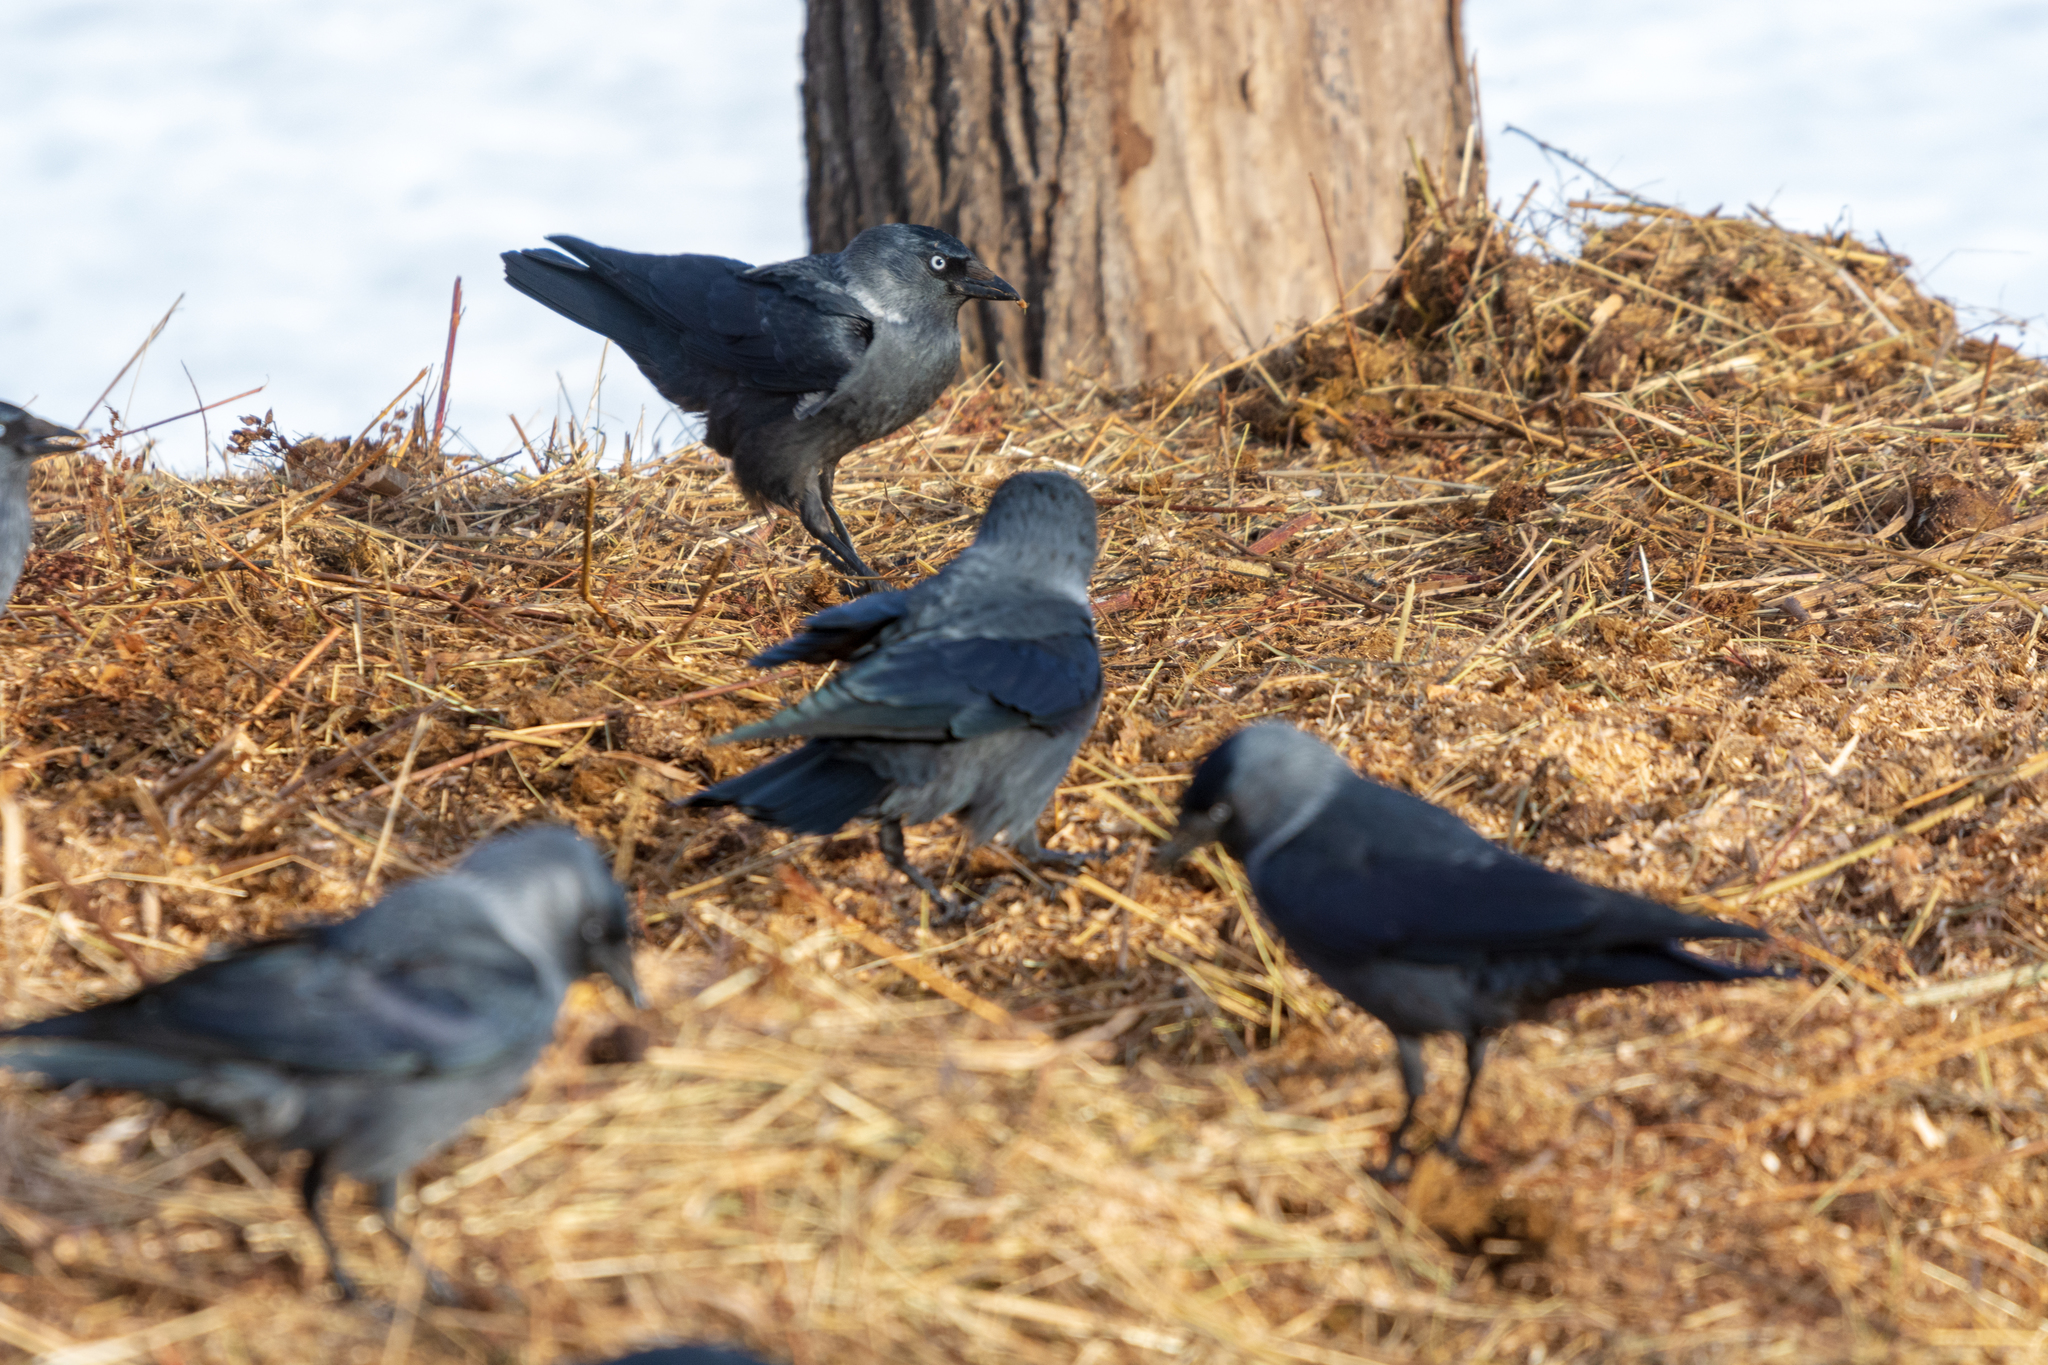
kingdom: Animalia
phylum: Chordata
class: Aves
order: Passeriformes
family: Corvidae
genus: Coloeus
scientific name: Coloeus monedula
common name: Western jackdaw
